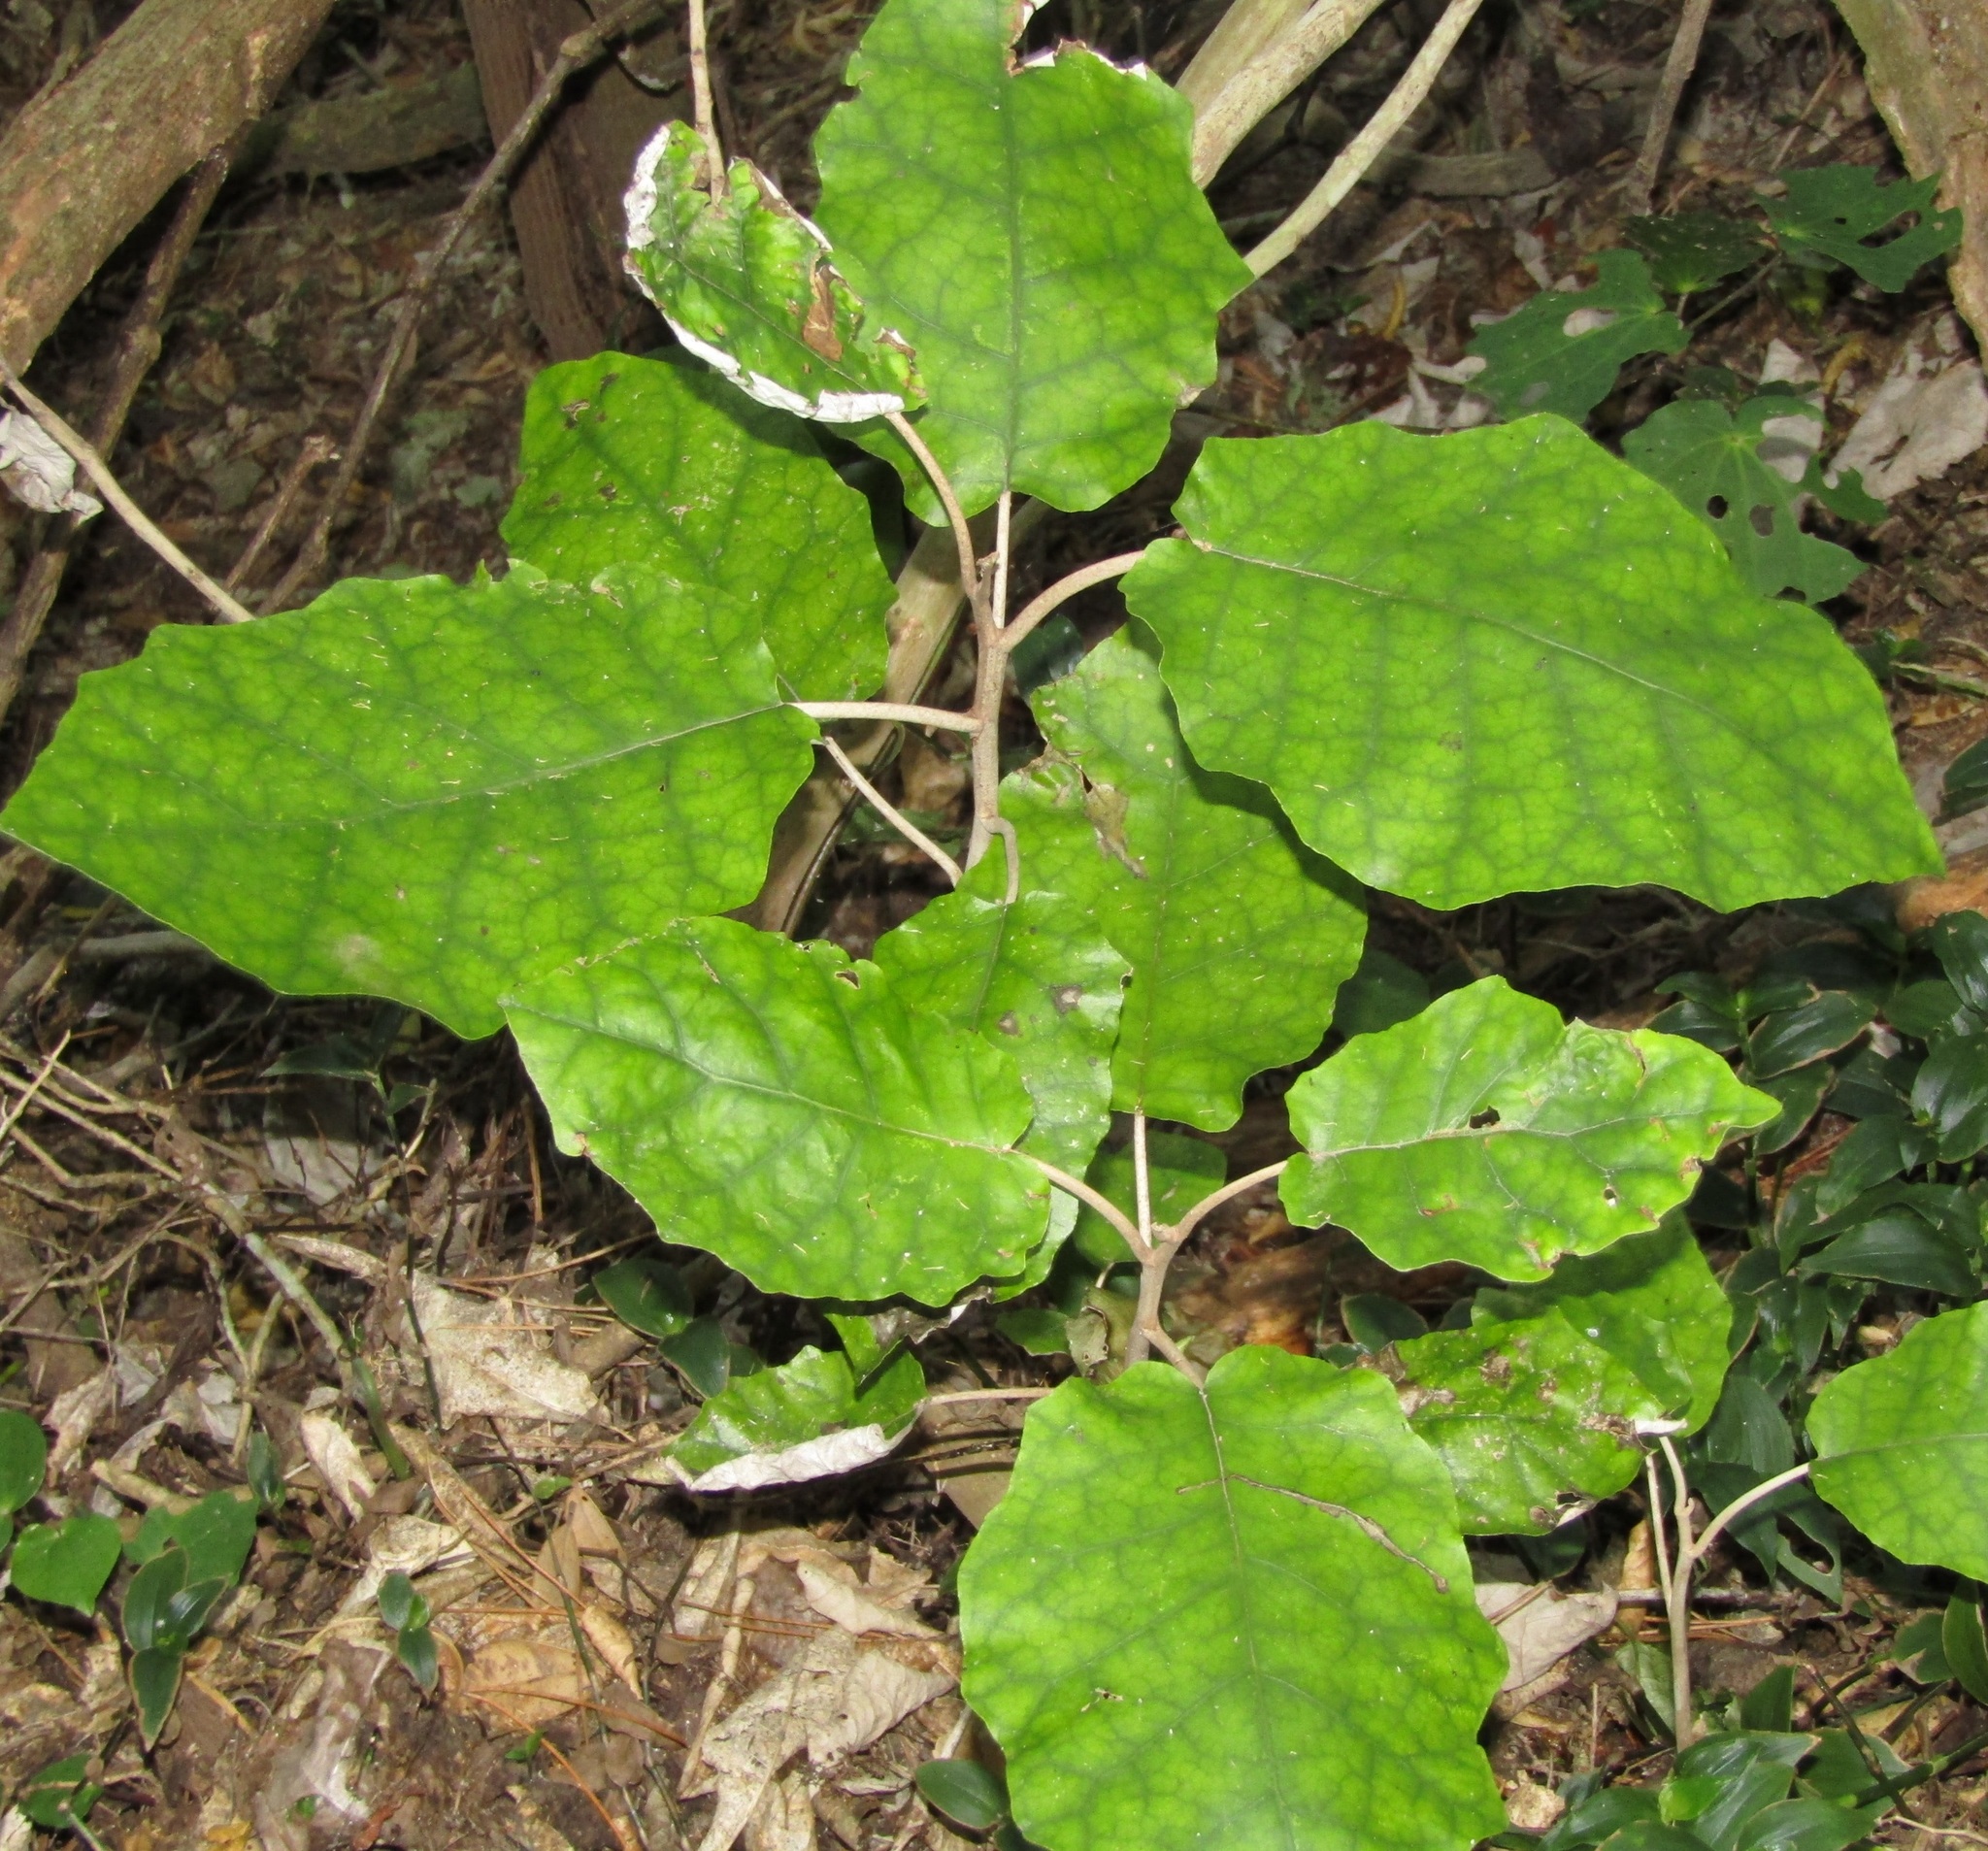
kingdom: Plantae
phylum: Tracheophyta
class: Magnoliopsida
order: Asterales
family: Asteraceae
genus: Brachyglottis
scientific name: Brachyglottis repanda
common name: Hedge ragwort
